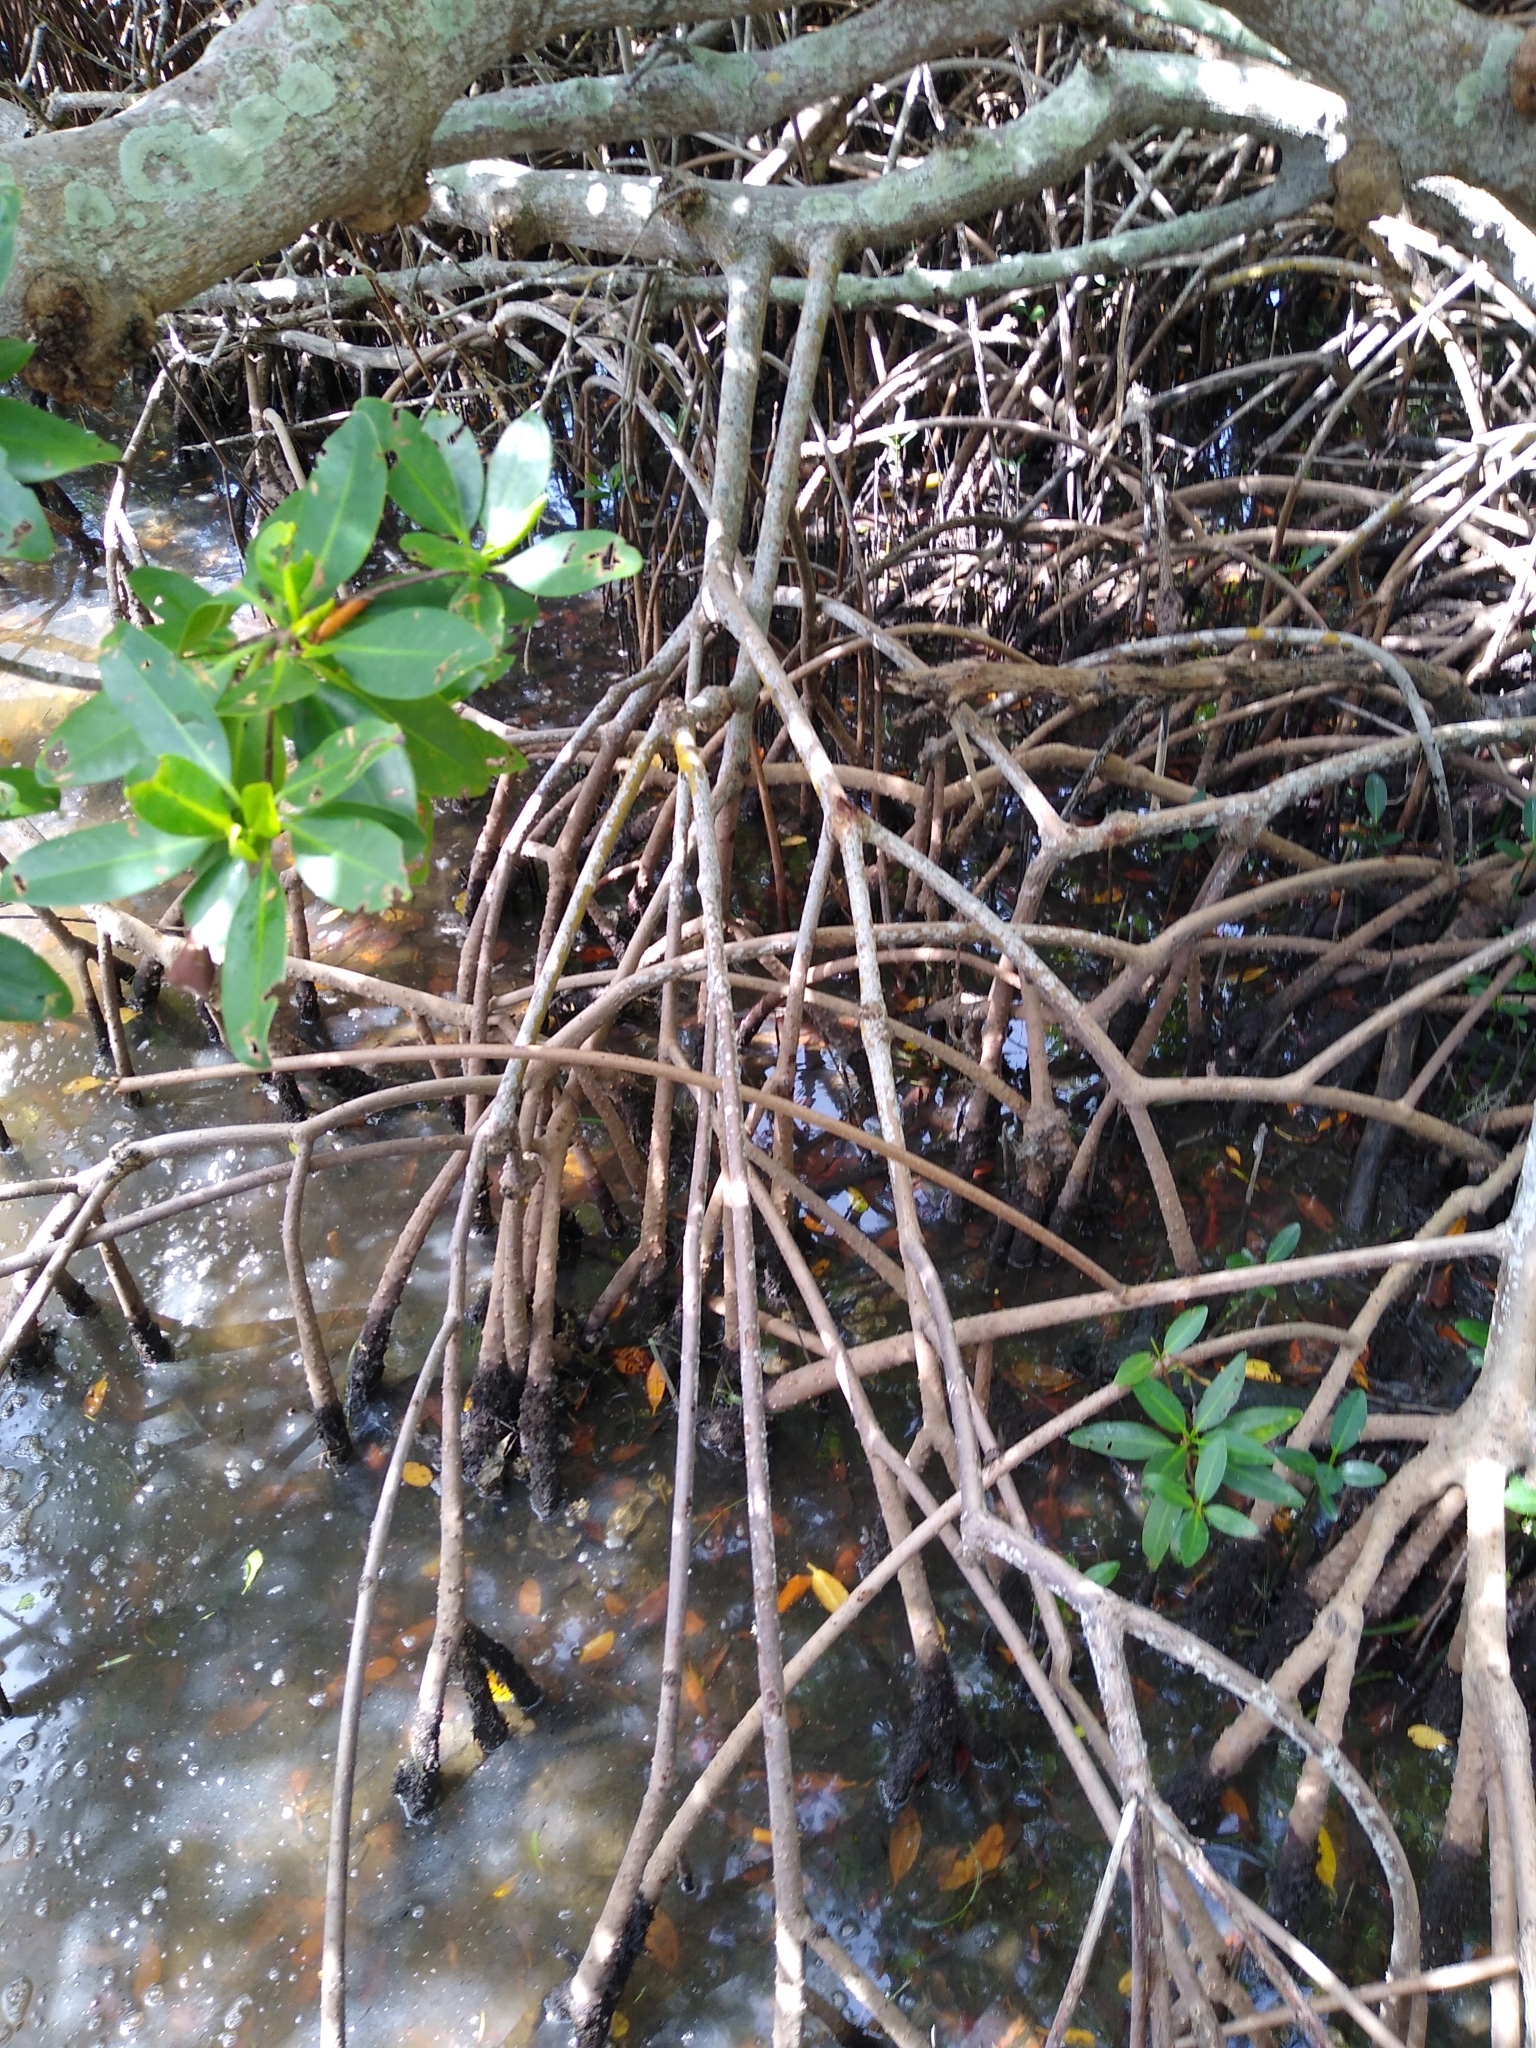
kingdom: Plantae
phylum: Tracheophyta
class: Magnoliopsida
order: Malpighiales
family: Rhizophoraceae
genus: Rhizophora
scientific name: Rhizophora mangle
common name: Red mangrove
